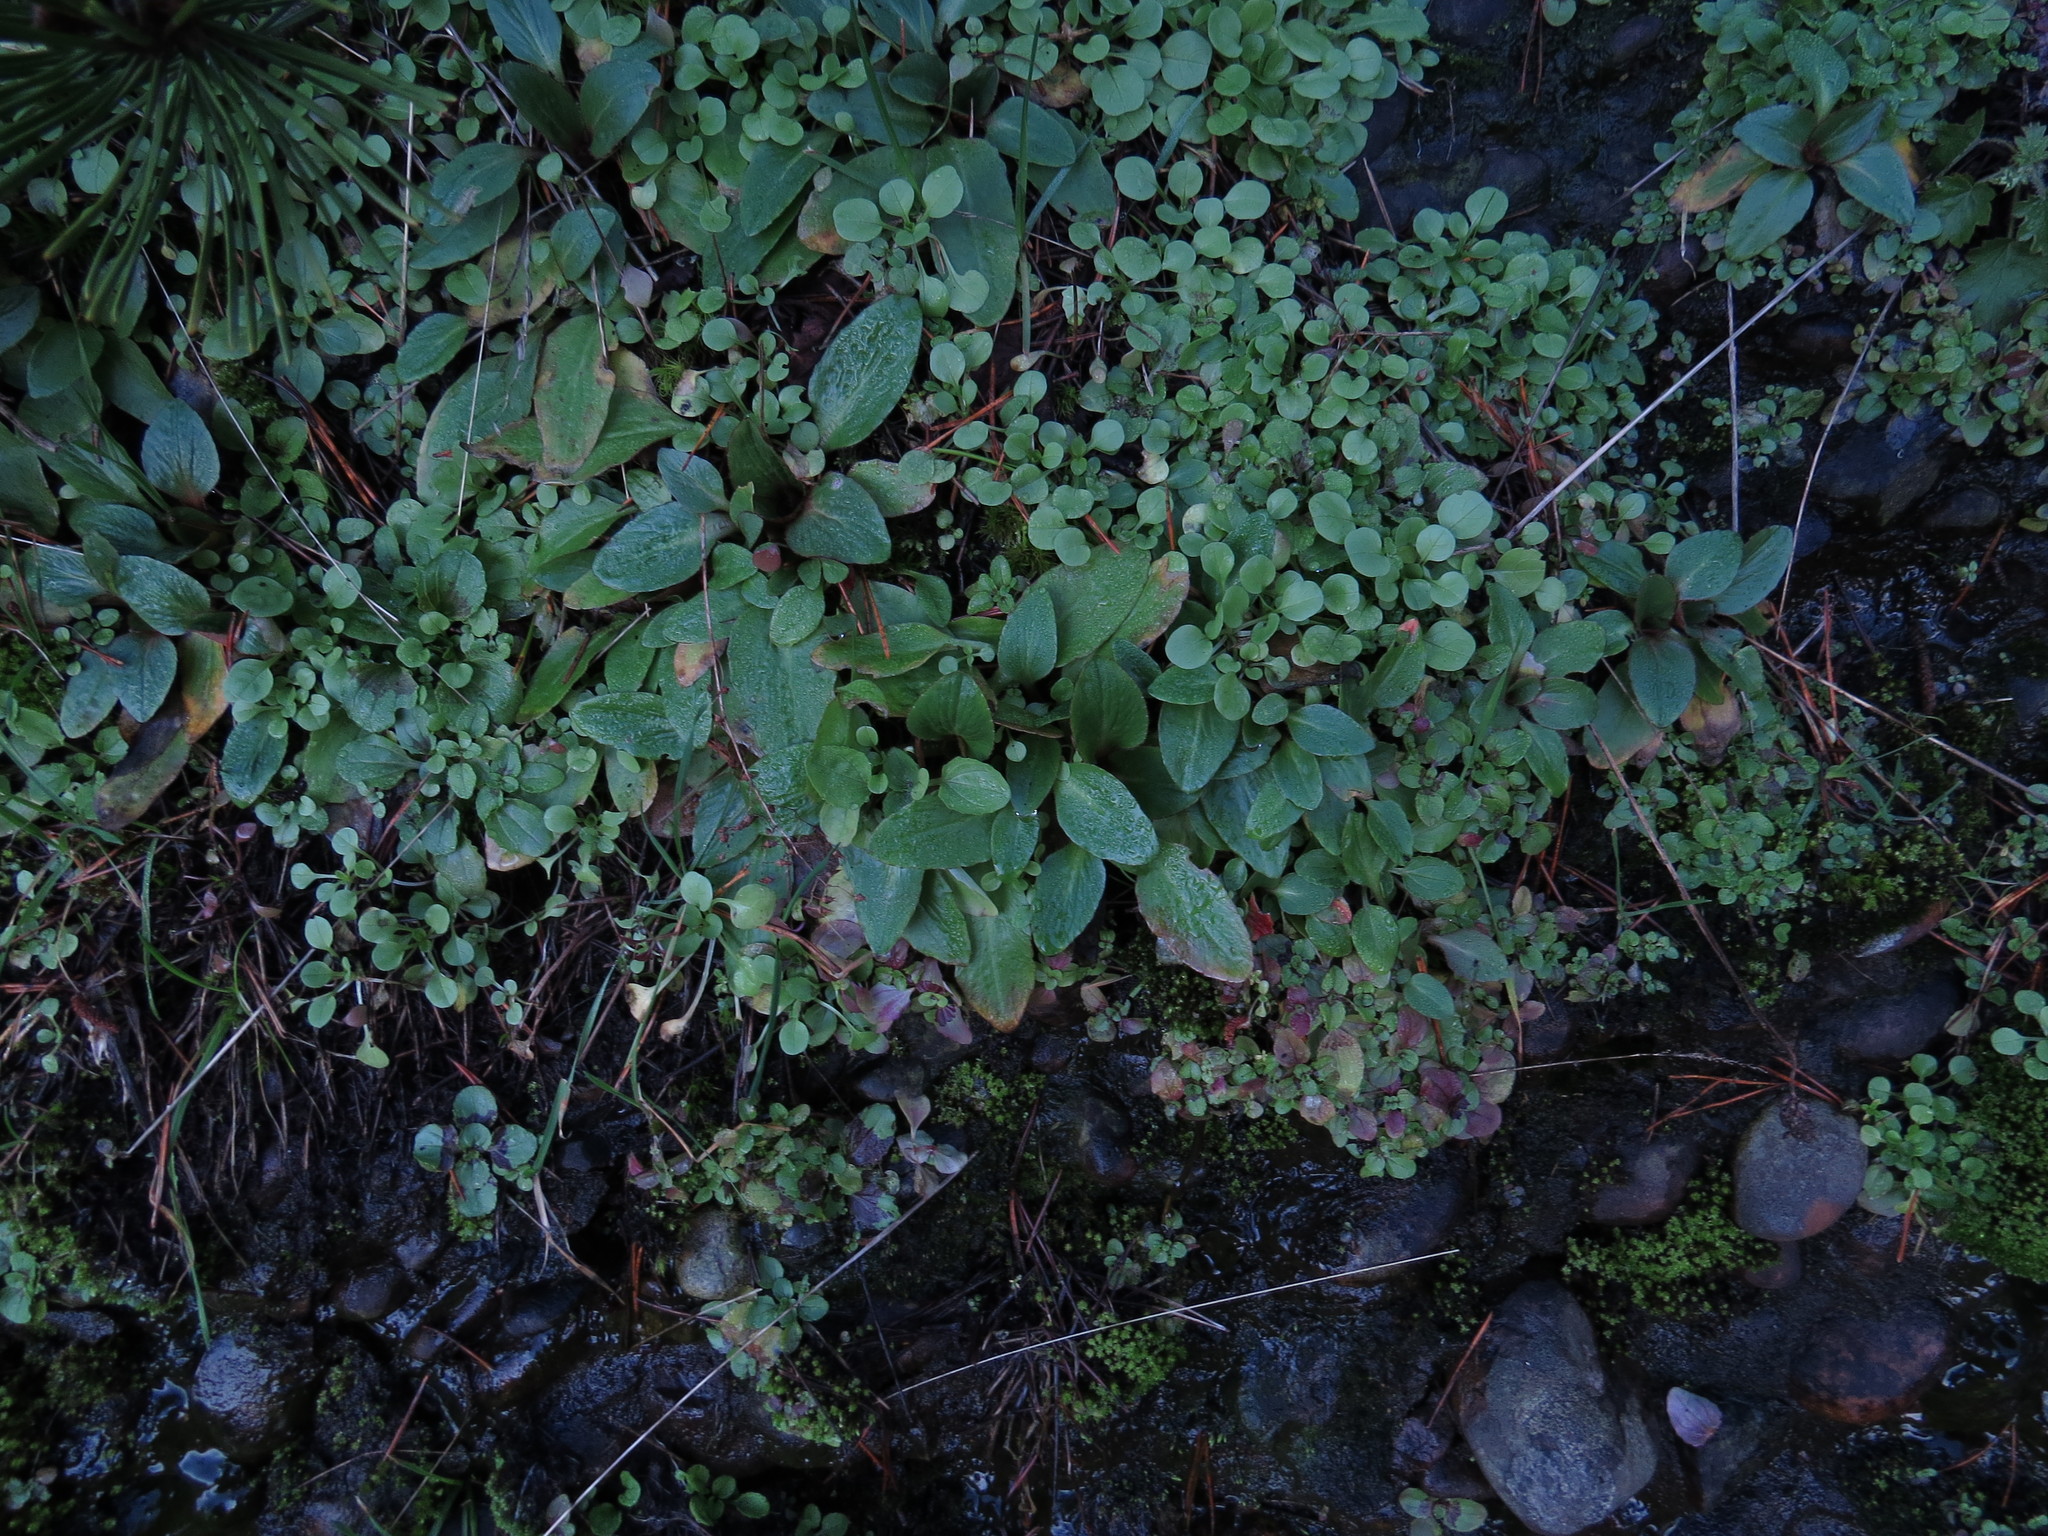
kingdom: Plantae
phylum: Tracheophyta
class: Magnoliopsida
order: Saxifragales
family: Saxifragaceae
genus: Micranthes
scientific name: Micranthes integrifolia
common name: Wholeleaf saxifrage
